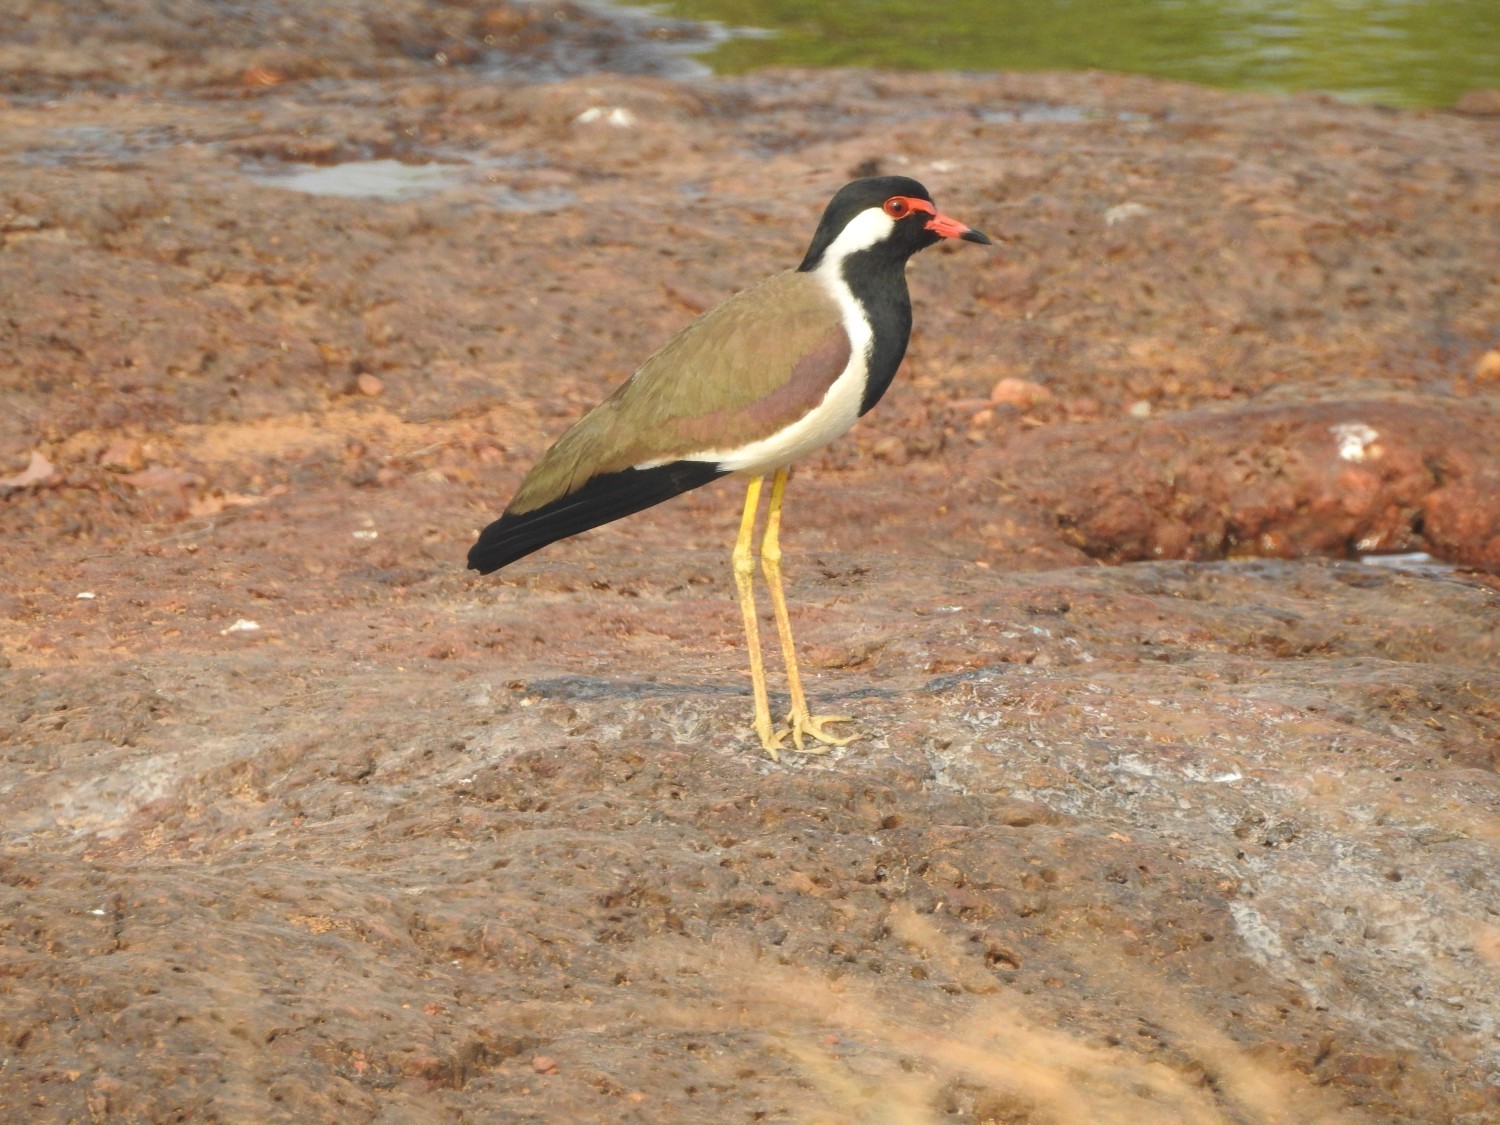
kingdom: Animalia
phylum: Chordata
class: Aves
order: Charadriiformes
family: Charadriidae
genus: Vanellus
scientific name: Vanellus indicus
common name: Red-wattled lapwing
